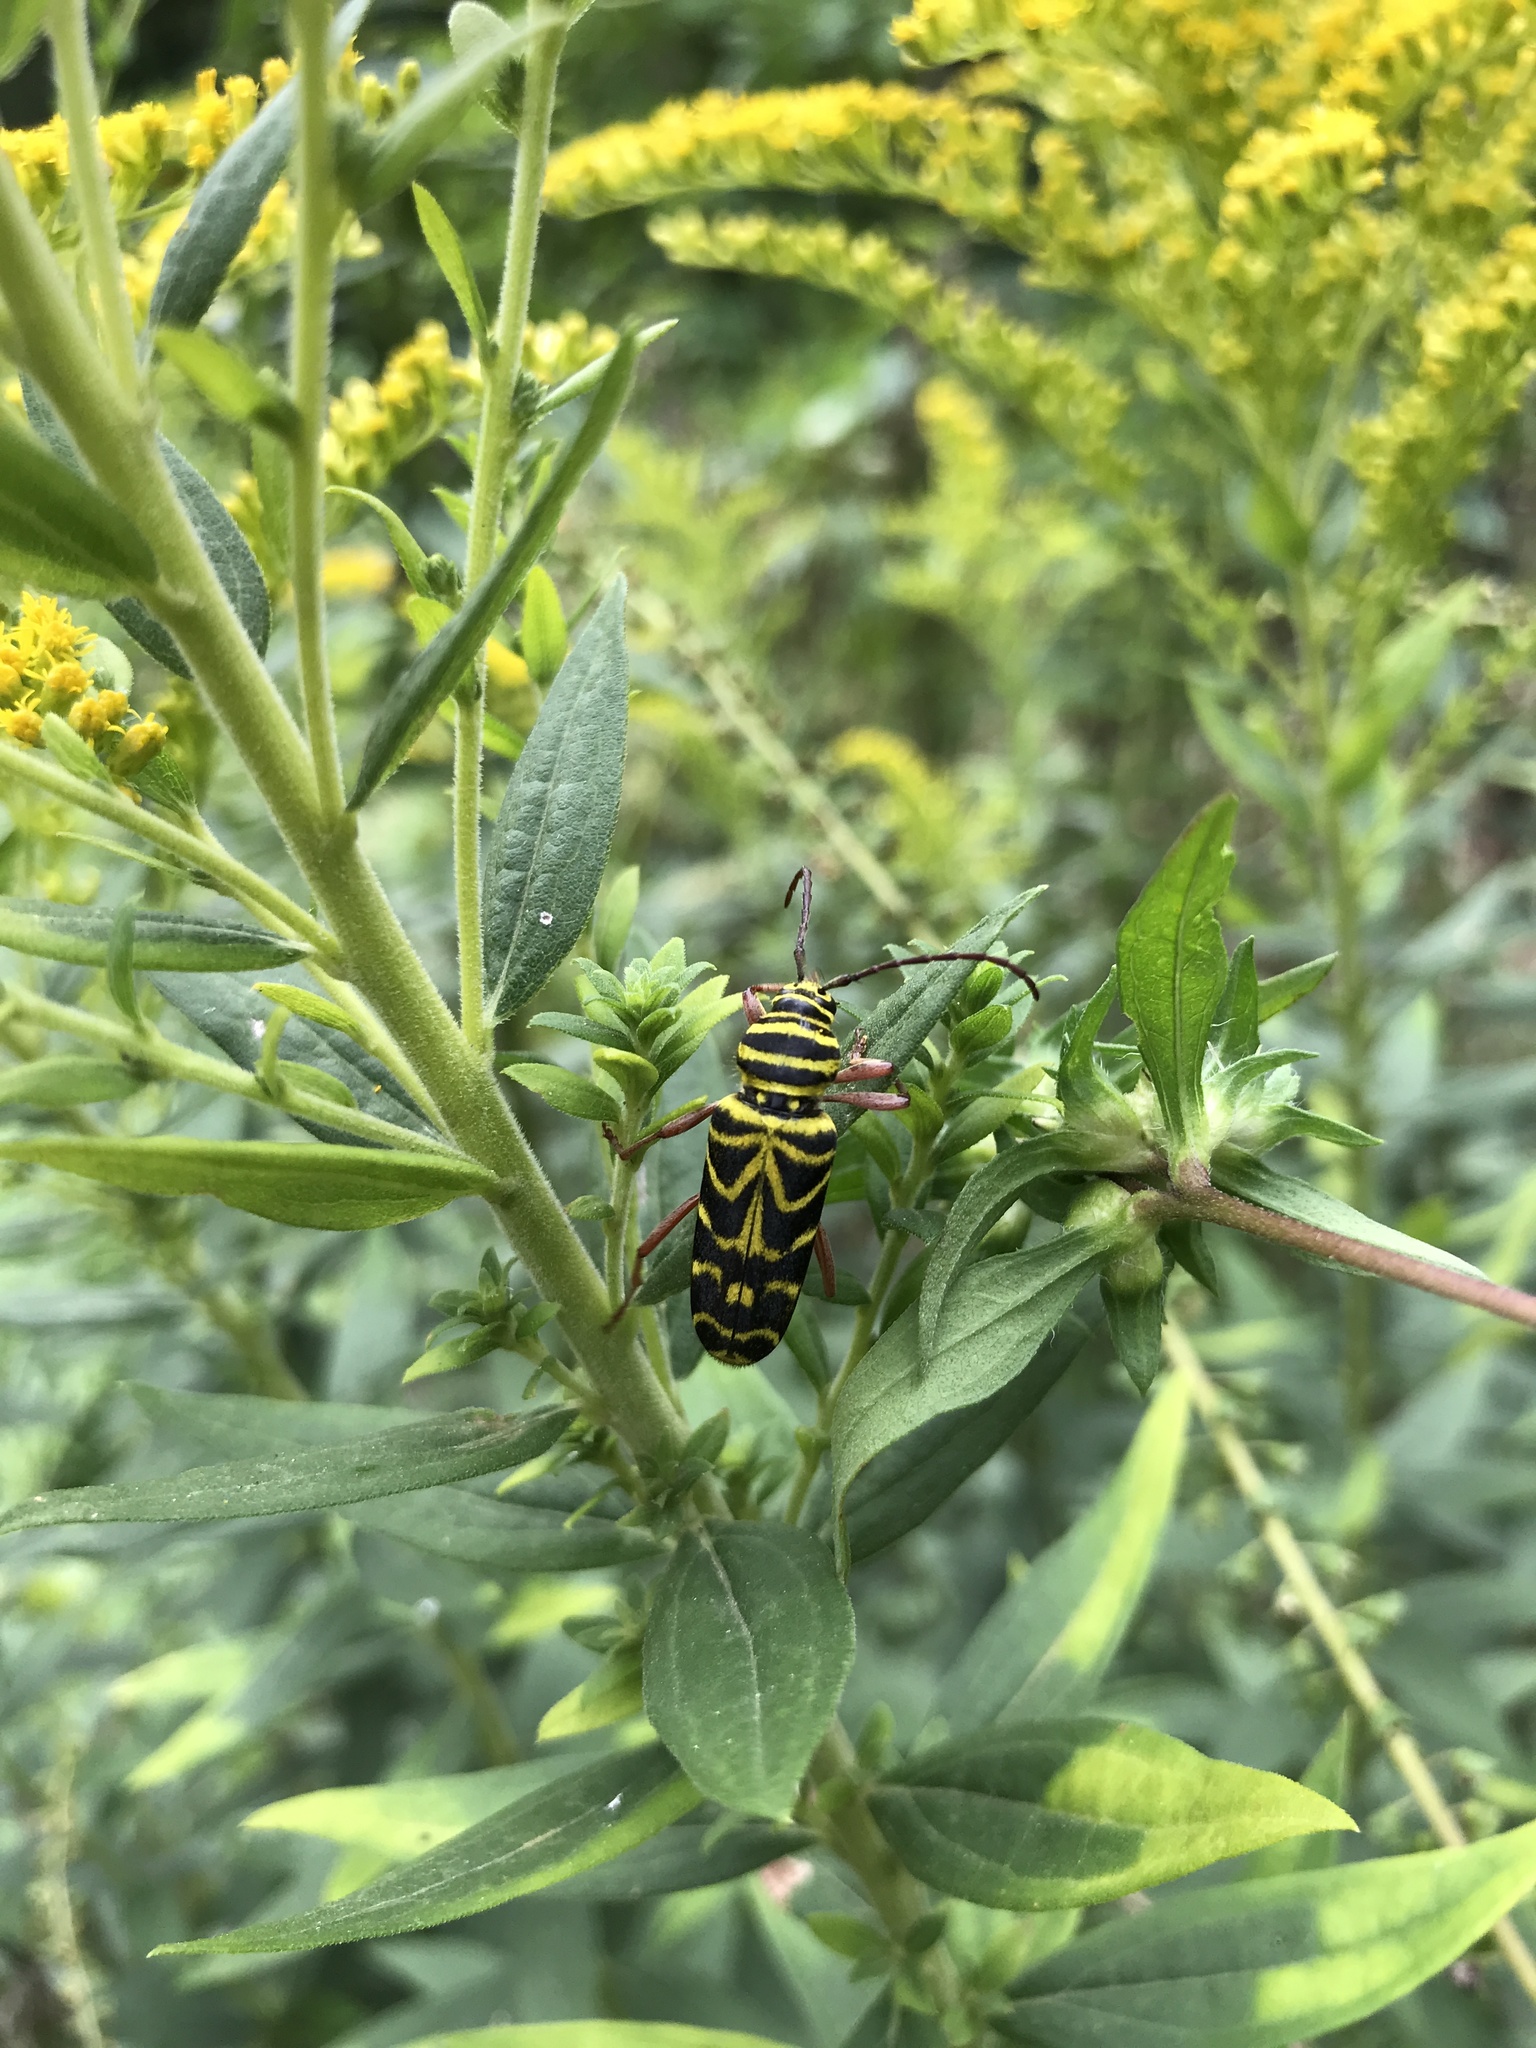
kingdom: Animalia
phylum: Arthropoda
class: Insecta
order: Coleoptera
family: Cerambycidae
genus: Megacyllene
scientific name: Megacyllene robiniae
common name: Locust borer
